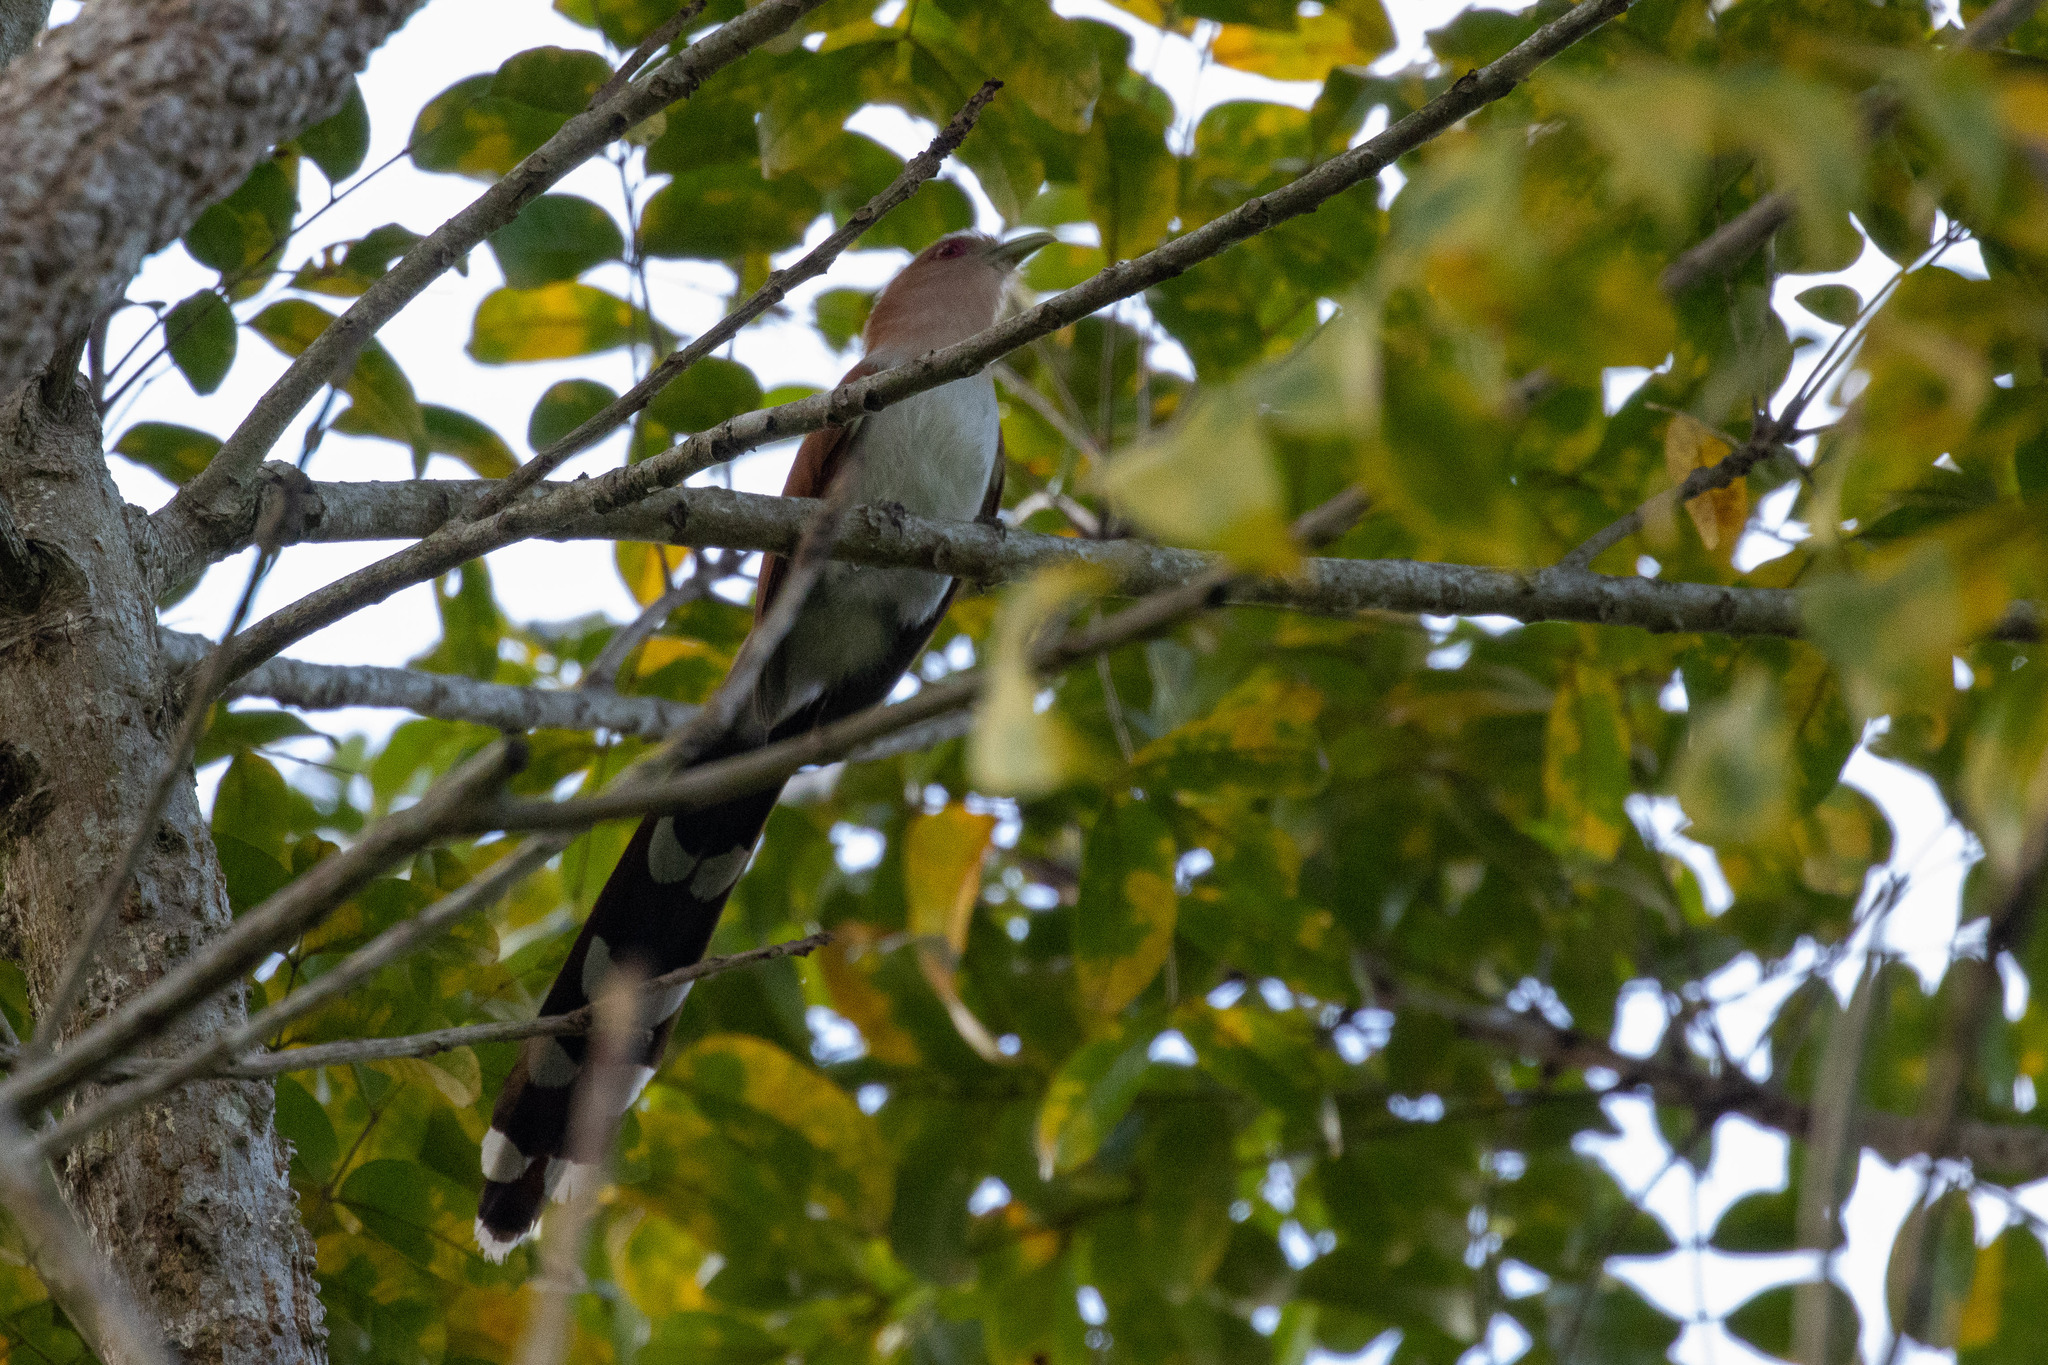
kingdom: Animalia
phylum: Chordata
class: Aves
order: Cuculiformes
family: Cuculidae
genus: Piaya
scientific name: Piaya cayana
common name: Squirrel cuckoo
